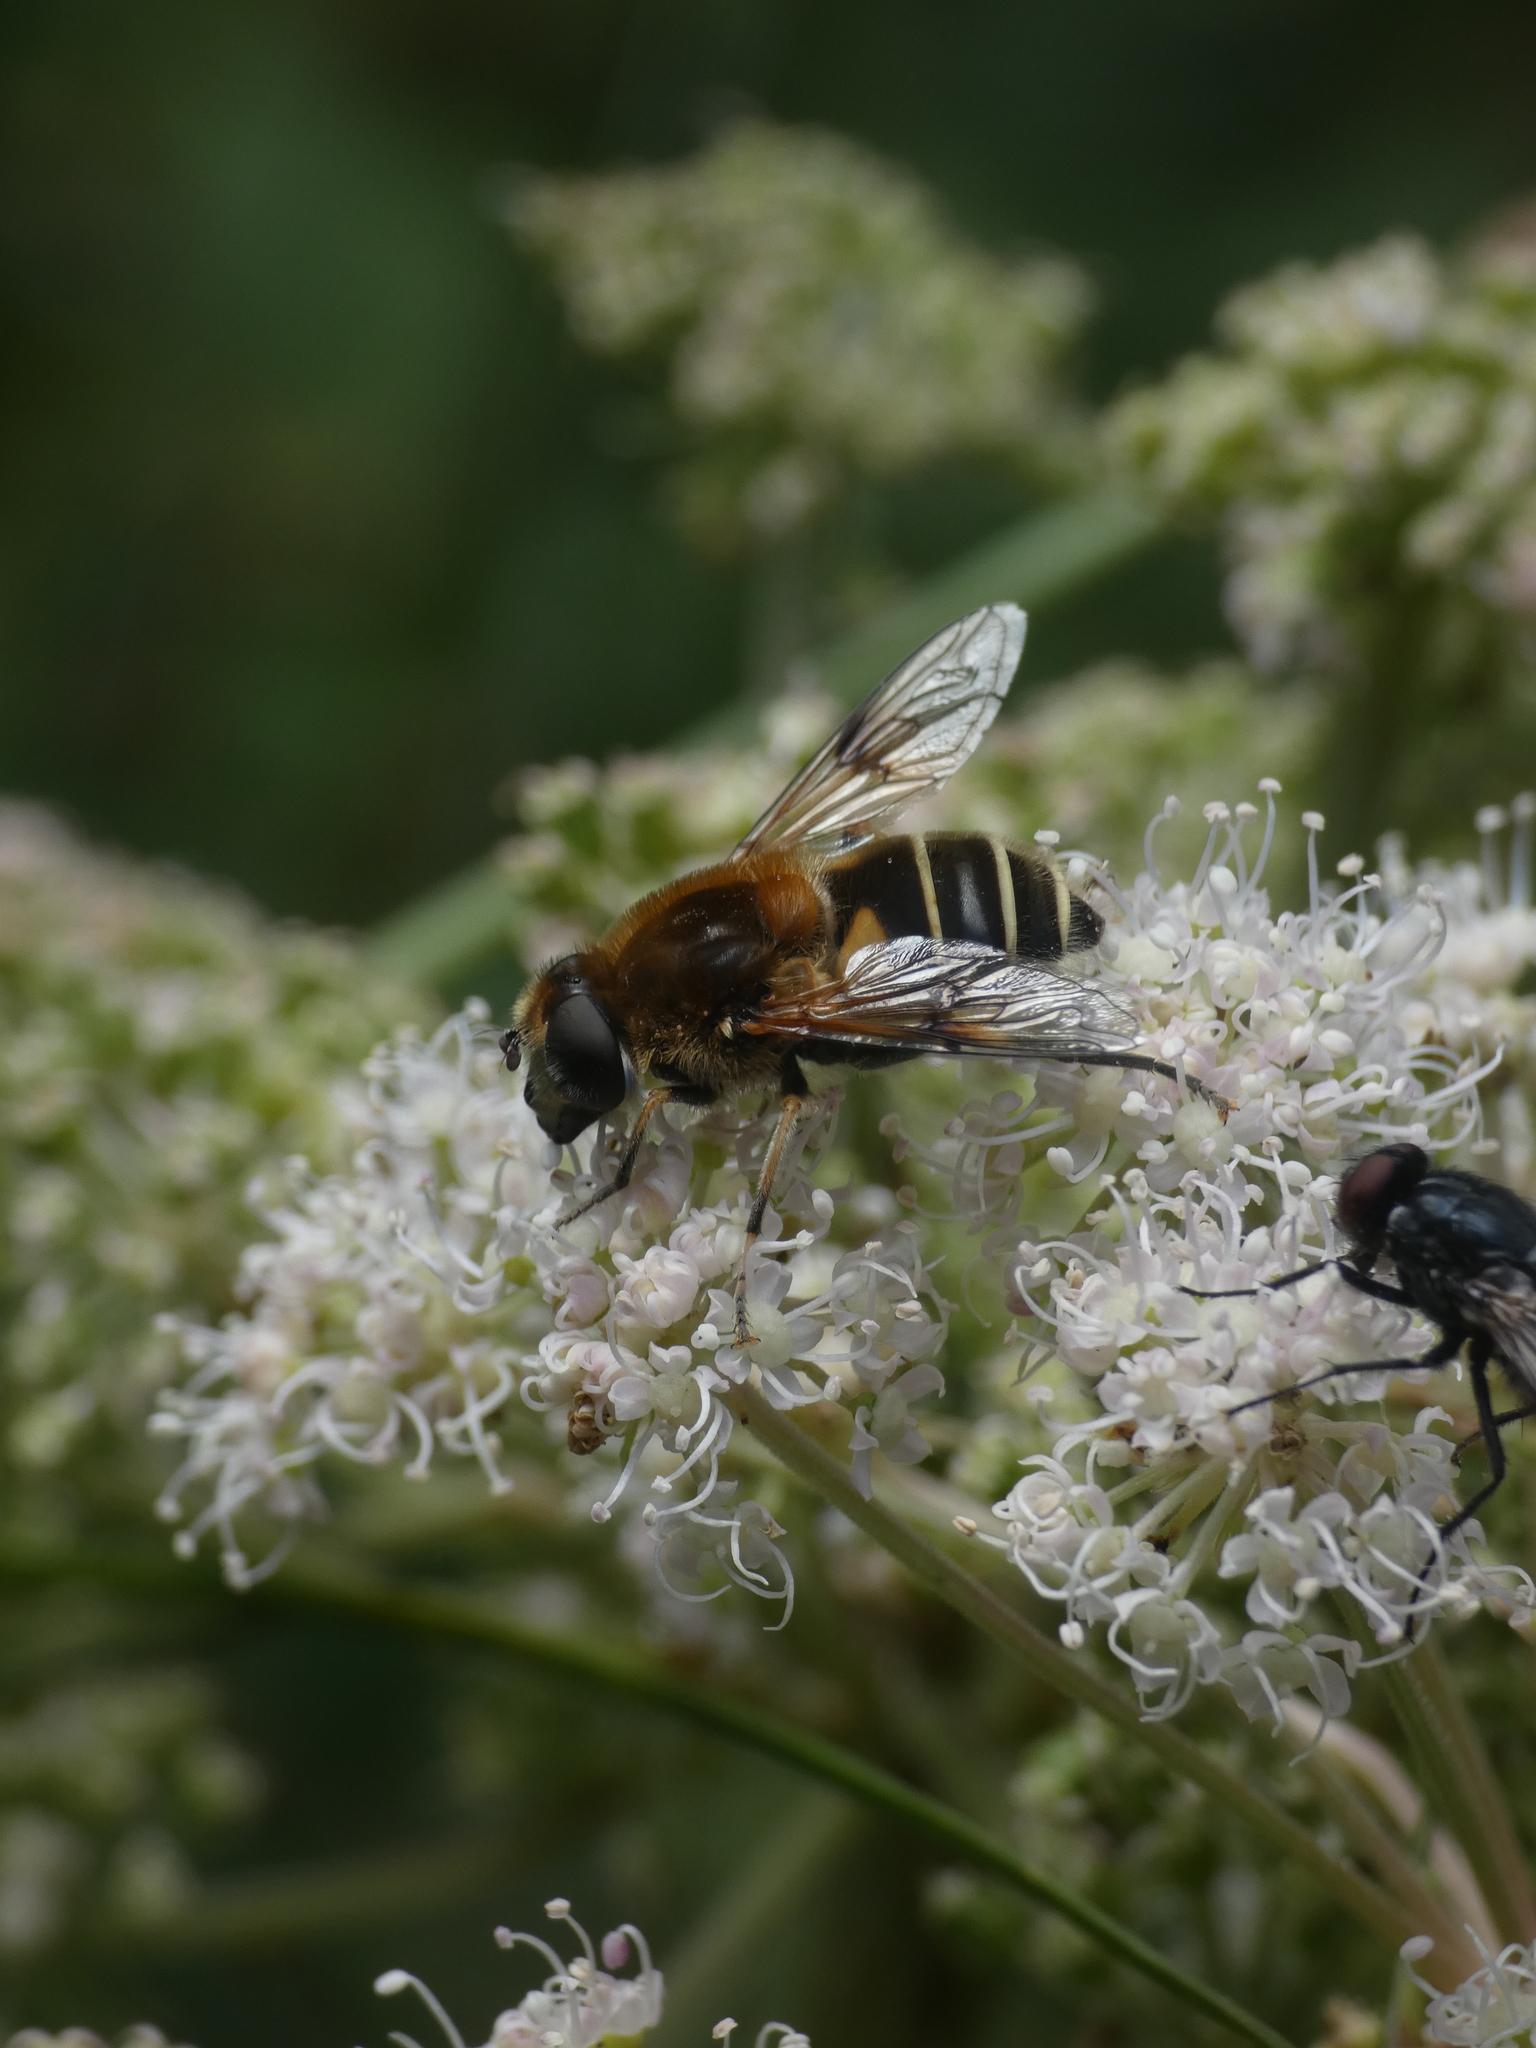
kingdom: Animalia
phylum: Arthropoda
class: Insecta
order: Diptera
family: Syrphidae
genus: Eristalis
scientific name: Eristalis jugorum
